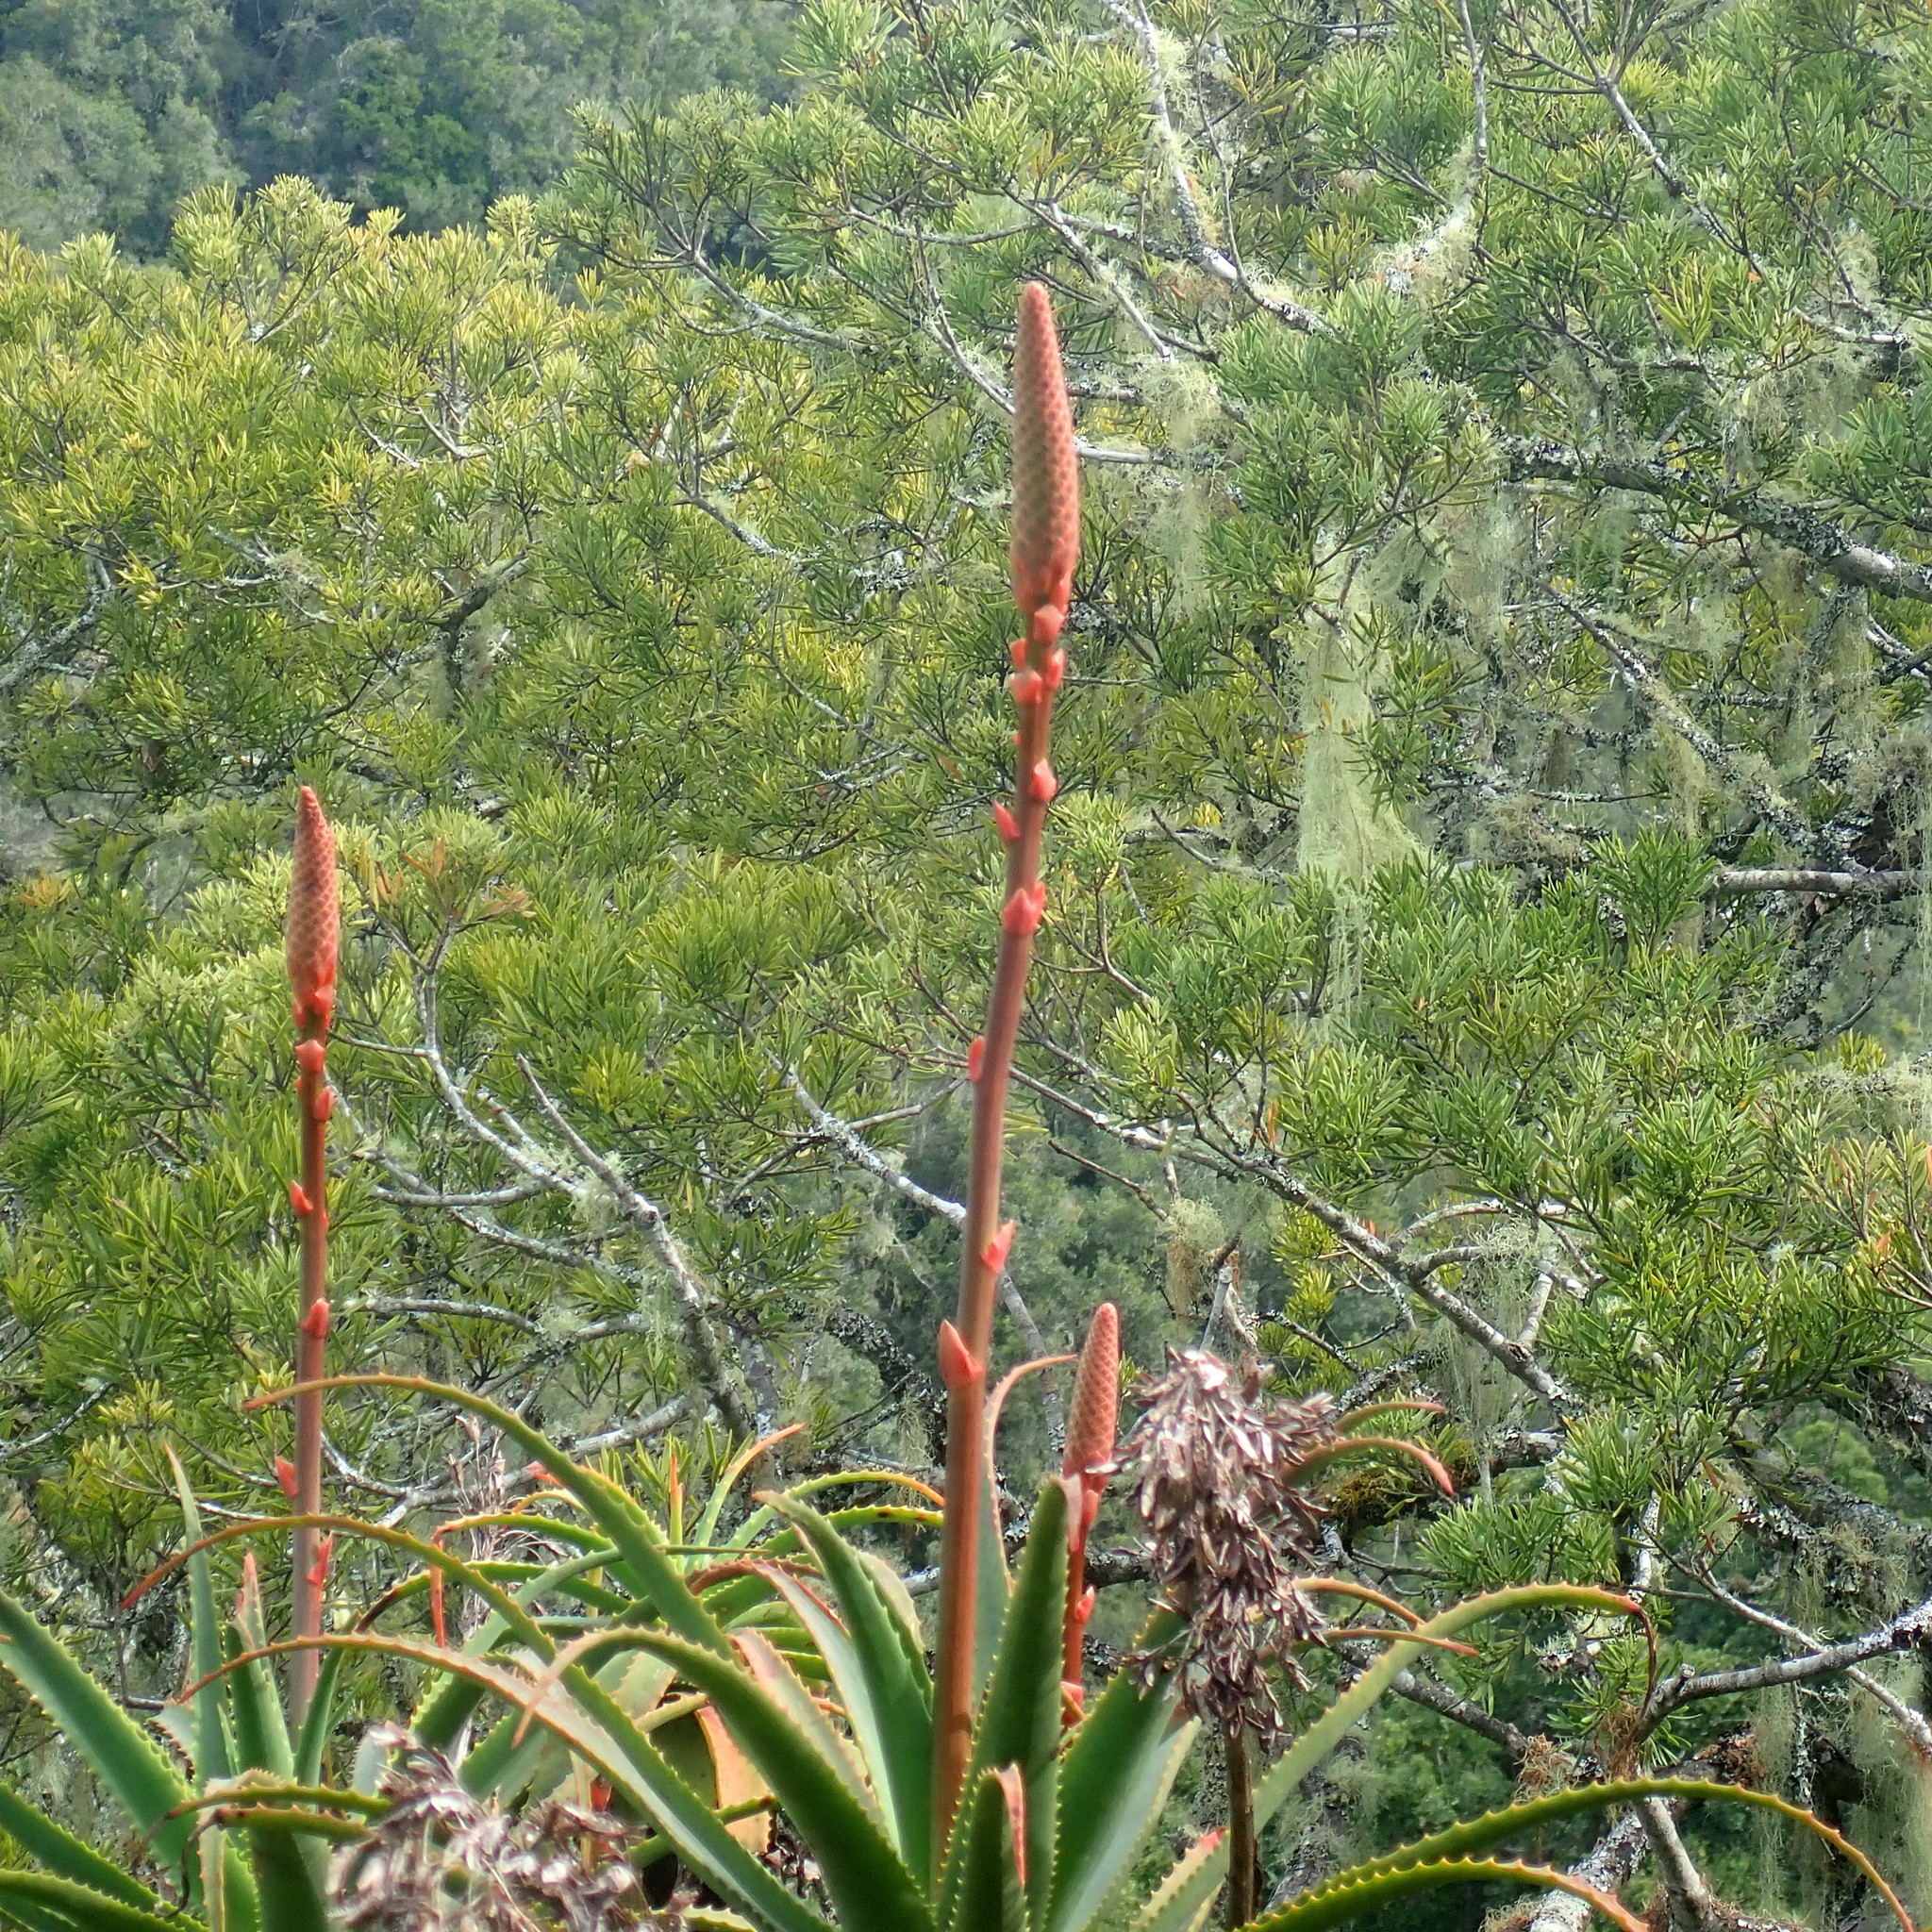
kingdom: Plantae
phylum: Tracheophyta
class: Liliopsida
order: Asparagales
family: Asphodelaceae
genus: Aloe
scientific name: Aloe arborescens
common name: Candelabra aloe
